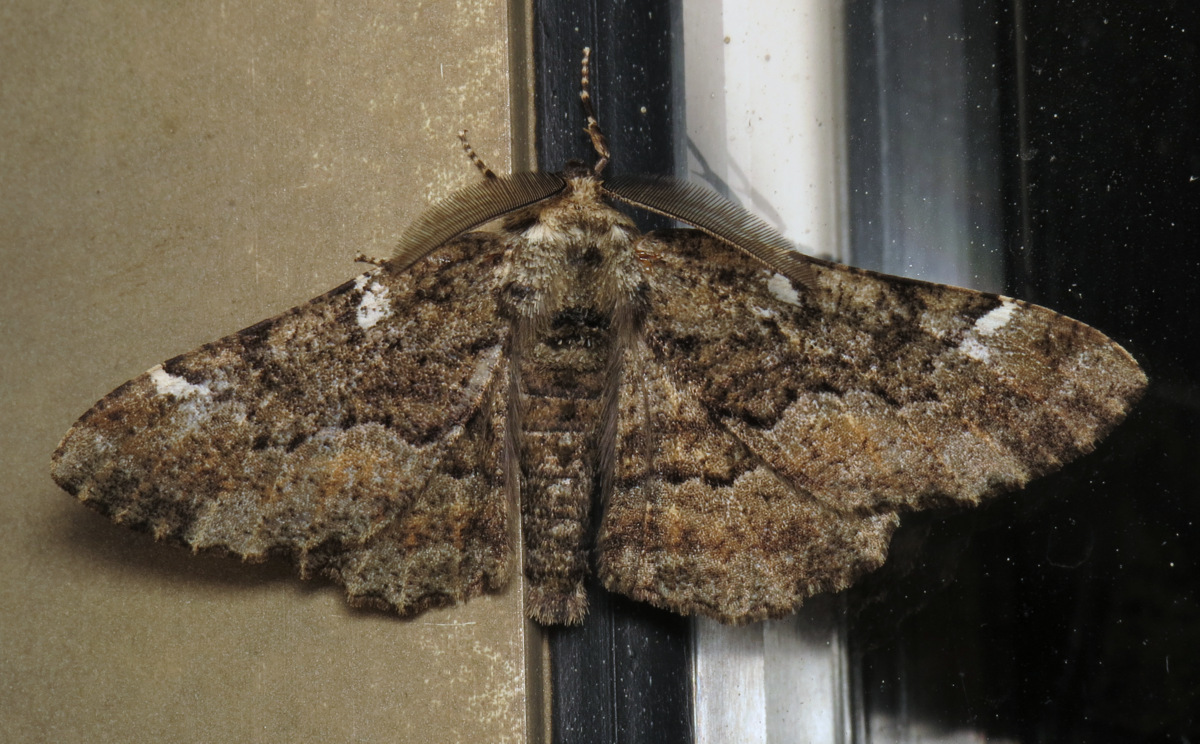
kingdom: Animalia
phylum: Arthropoda
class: Insecta
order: Lepidoptera
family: Geometridae
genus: Phaeoura
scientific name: Phaeoura quernaria
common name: Oak beauty
